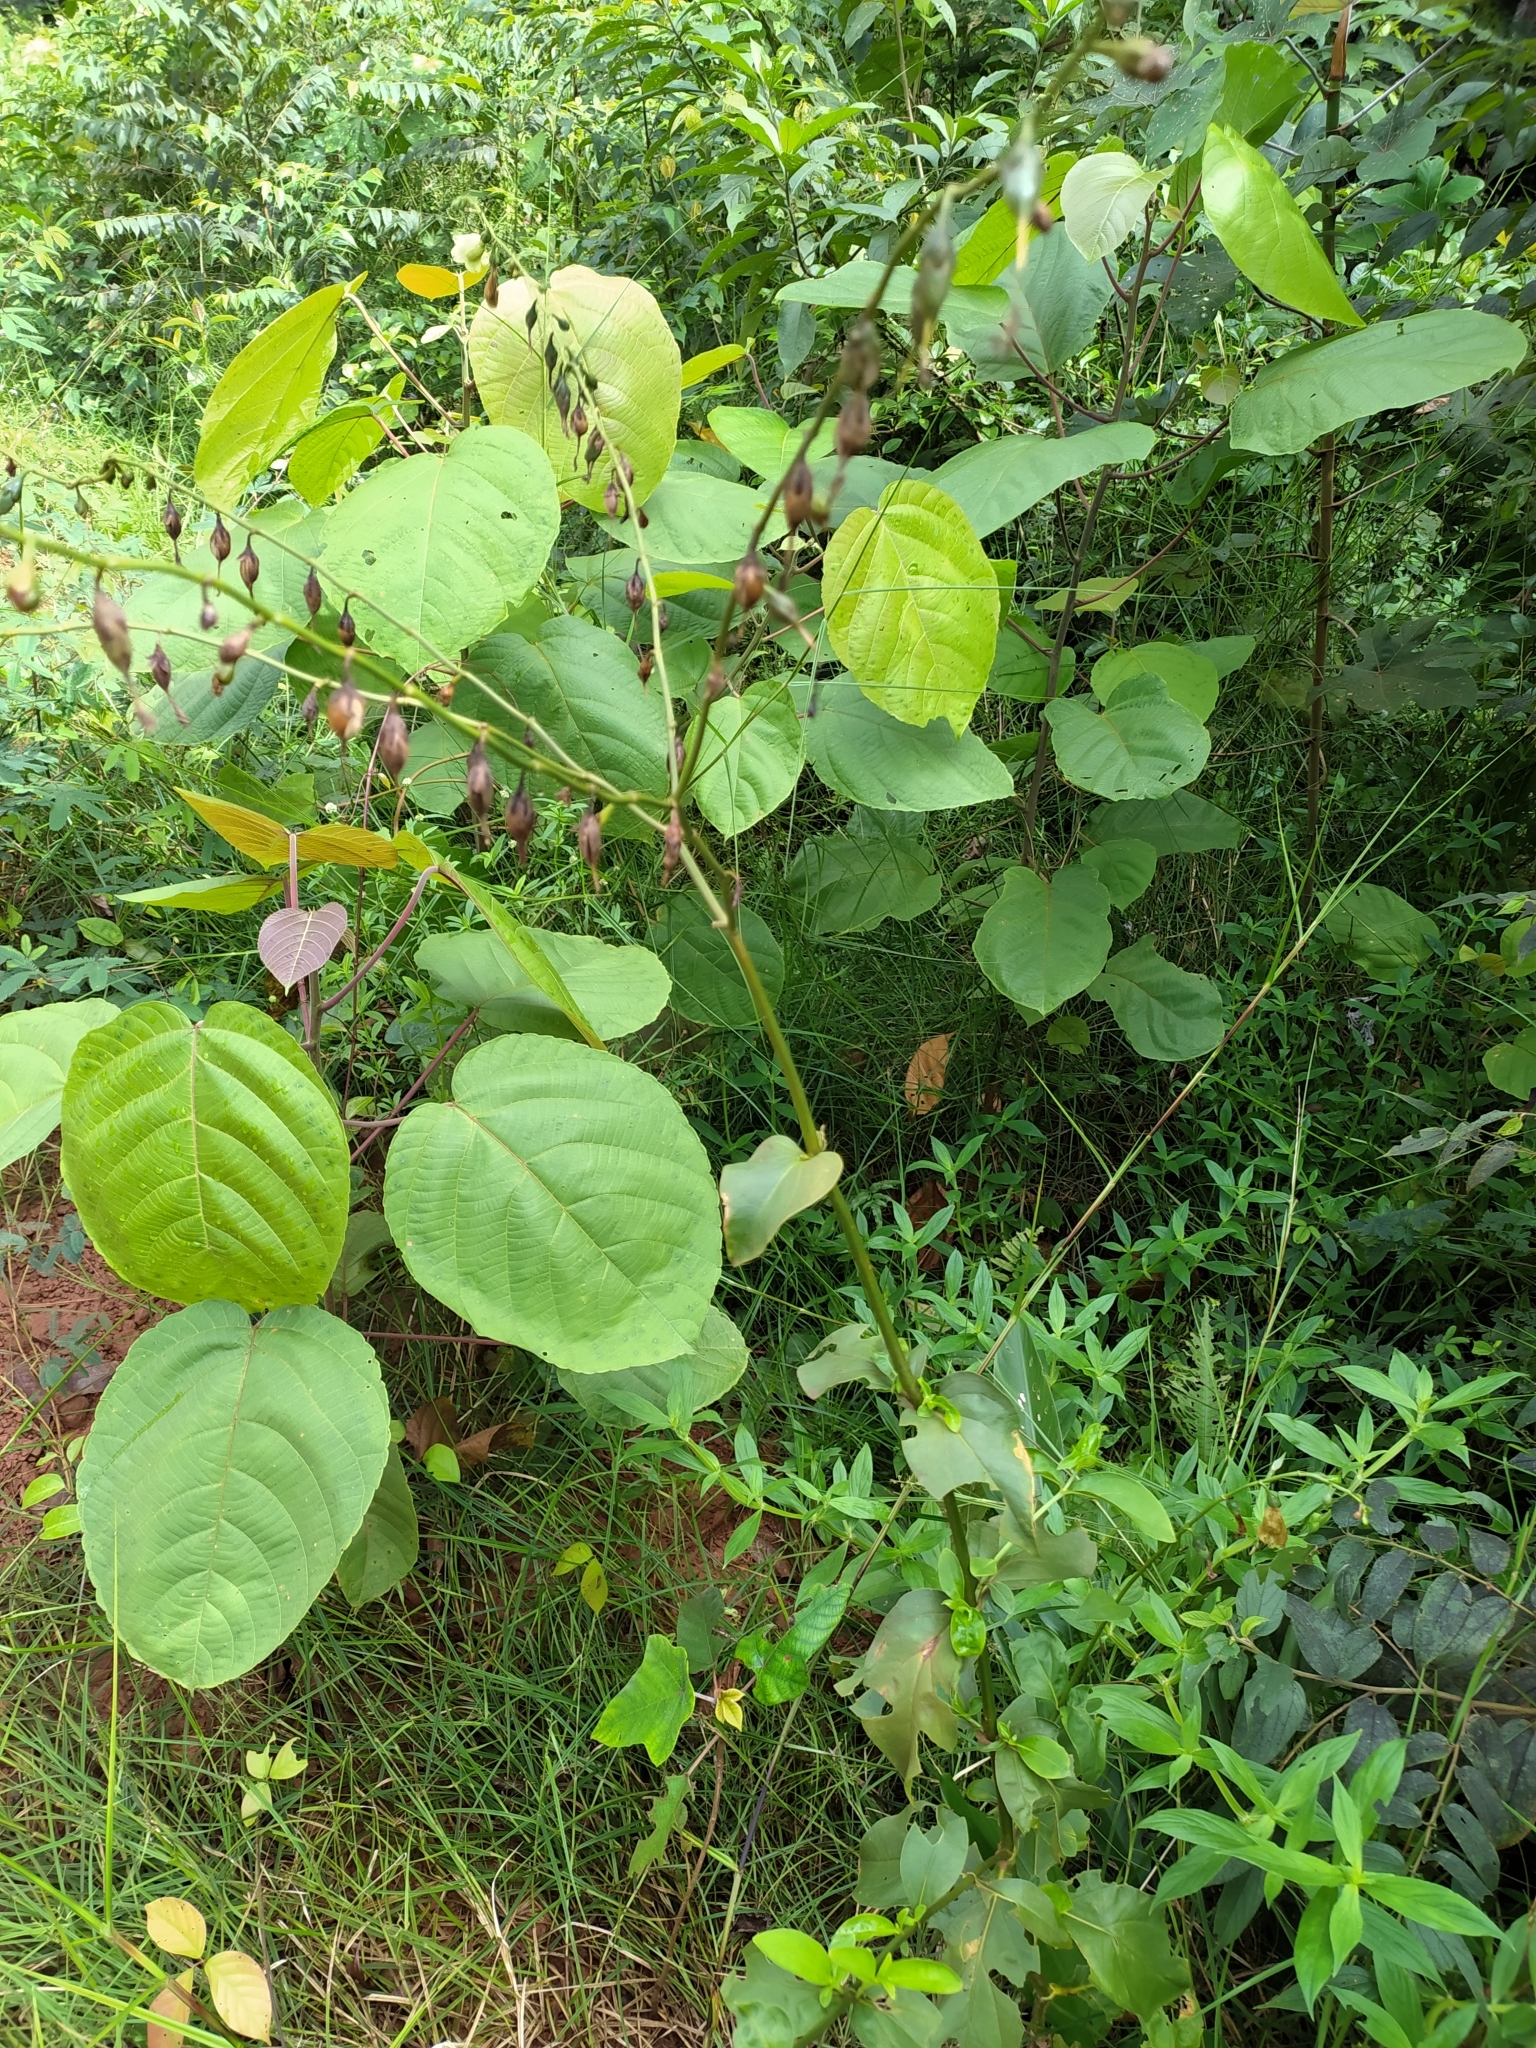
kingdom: Plantae
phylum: Tracheophyta
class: Magnoliopsida
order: Gentianales
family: Gentianaceae
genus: Chelonanthus
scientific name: Chelonanthus grandiflorus
